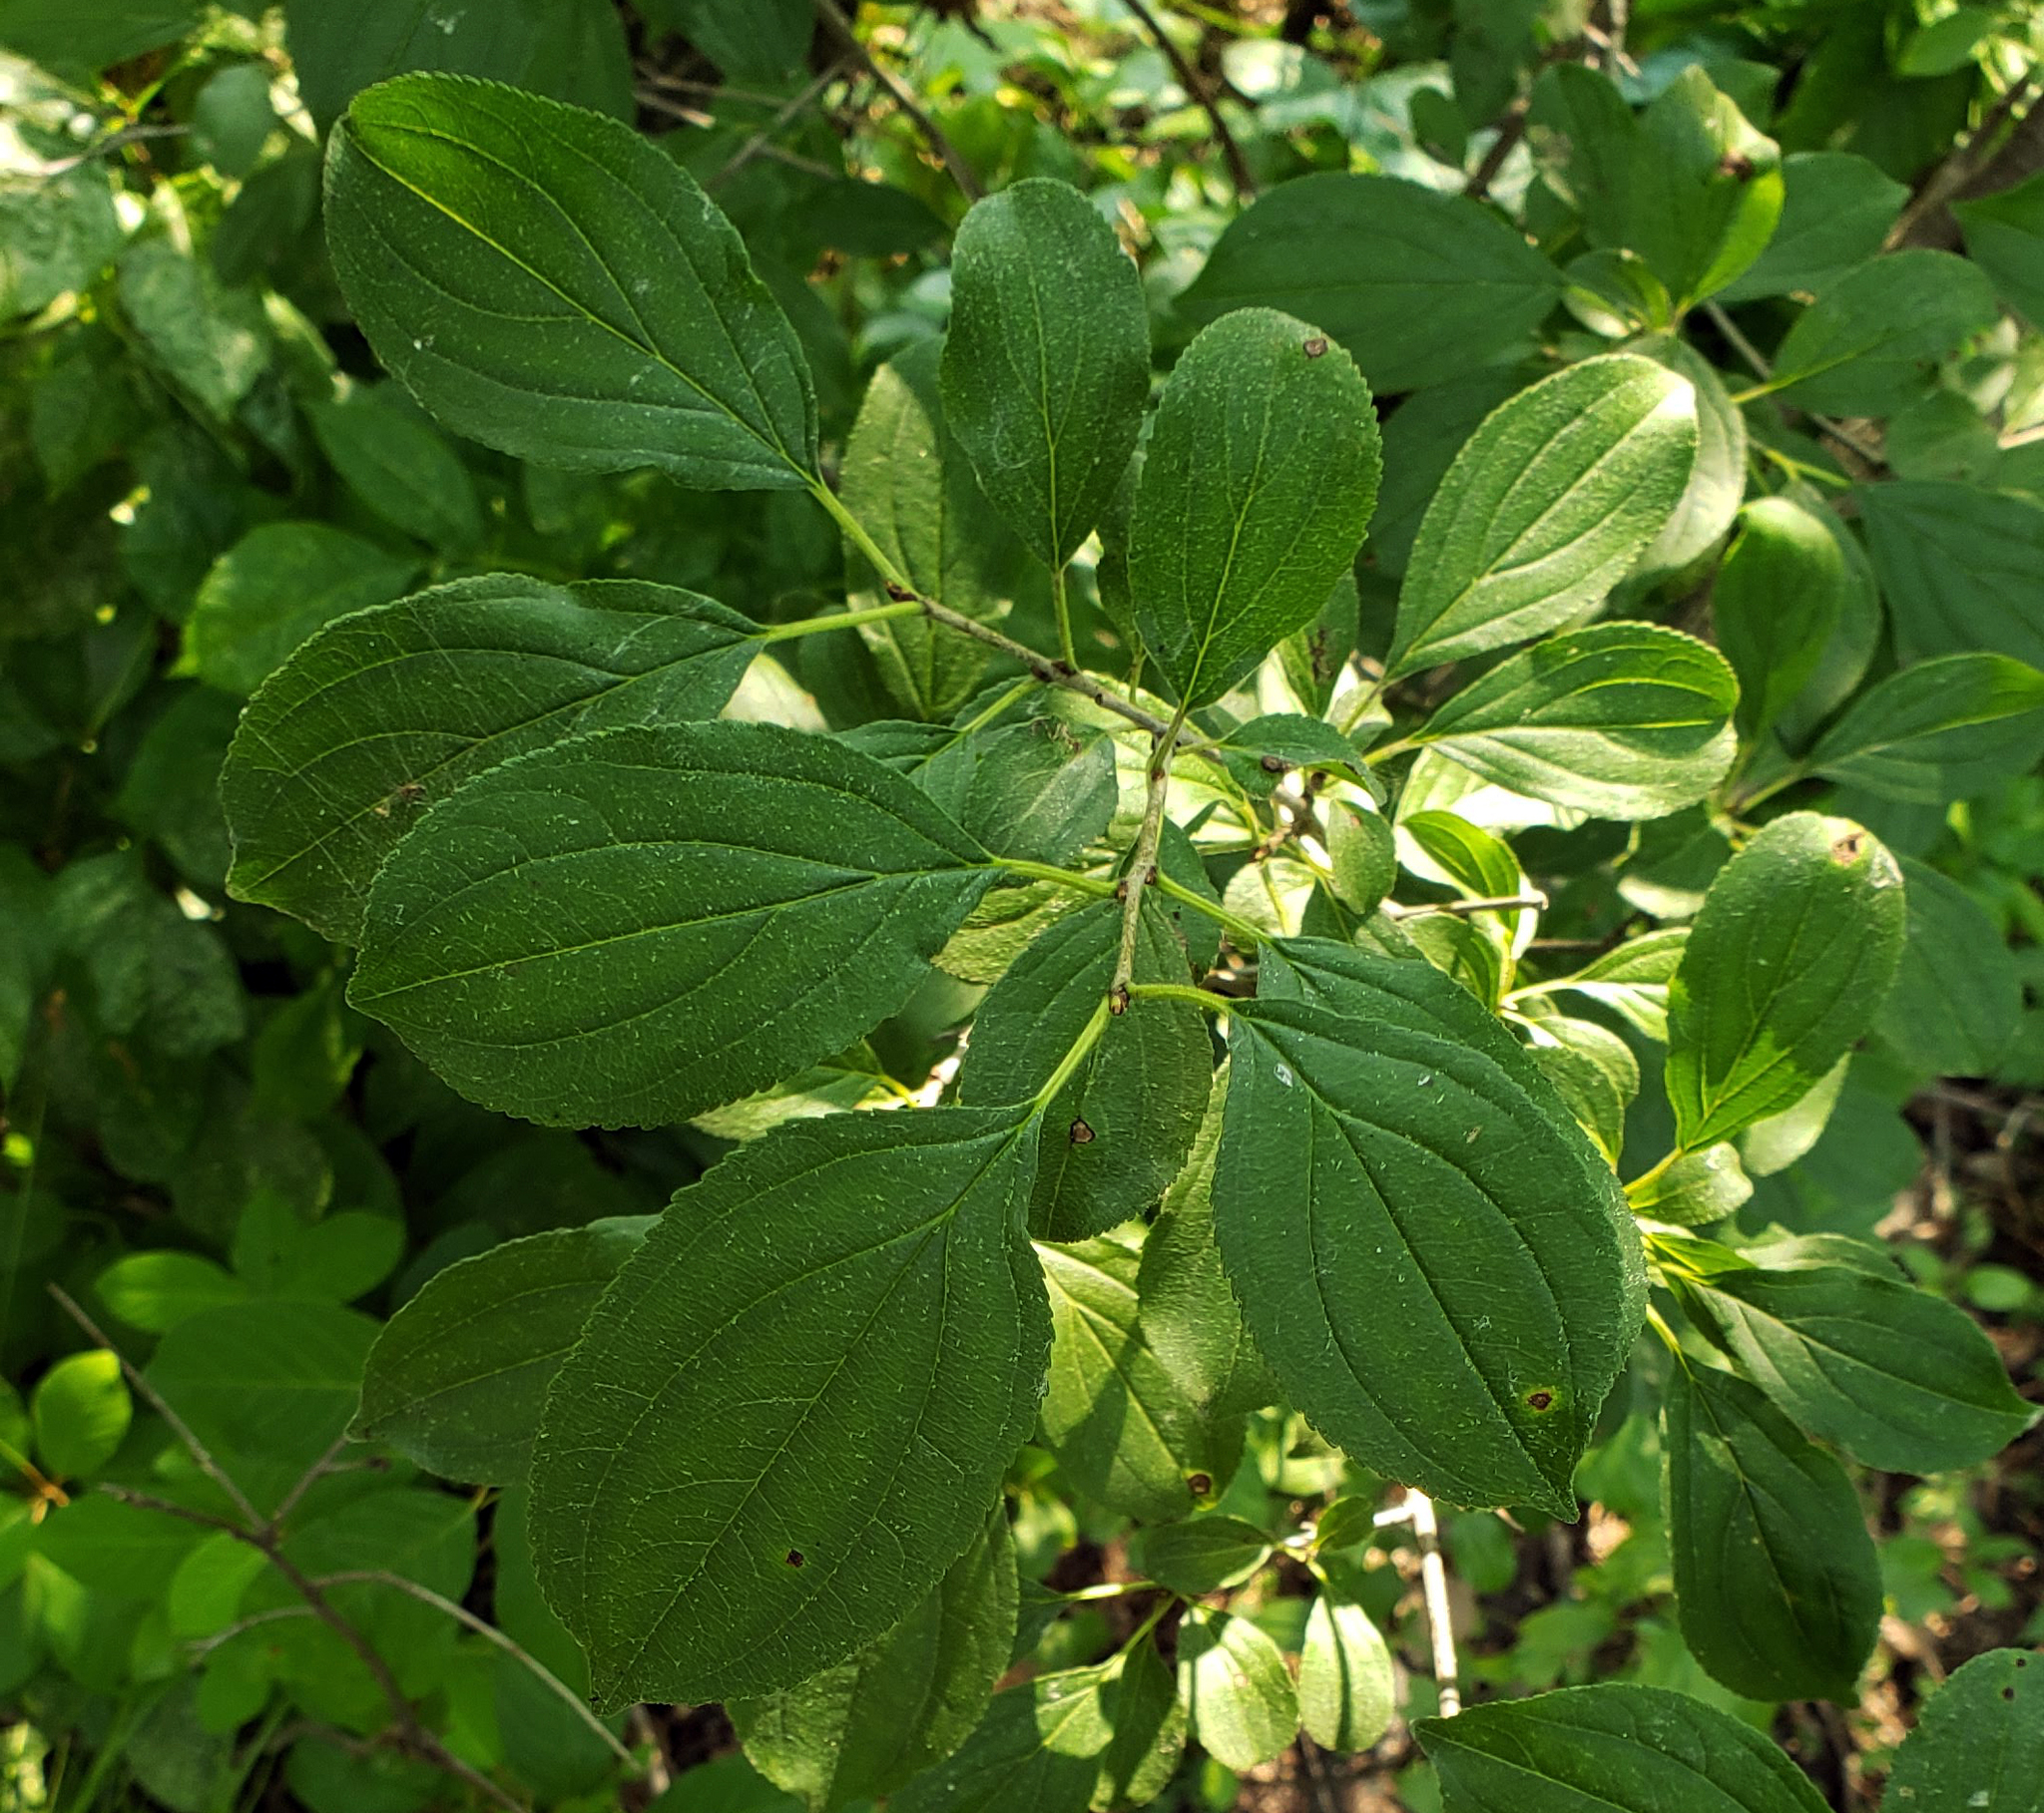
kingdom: Plantae
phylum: Tracheophyta
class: Magnoliopsida
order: Rosales
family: Rhamnaceae
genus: Rhamnus
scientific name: Rhamnus cathartica
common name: Common buckthorn
